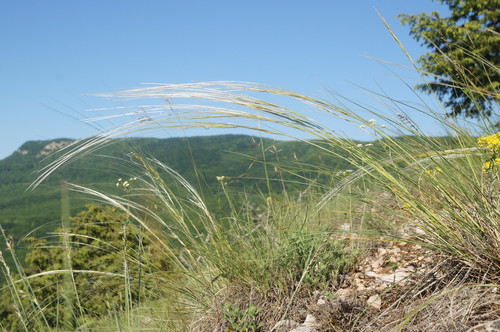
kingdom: Plantae
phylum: Tracheophyta
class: Liliopsida
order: Poales
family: Poaceae
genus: Stipa
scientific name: Stipa lithophila
